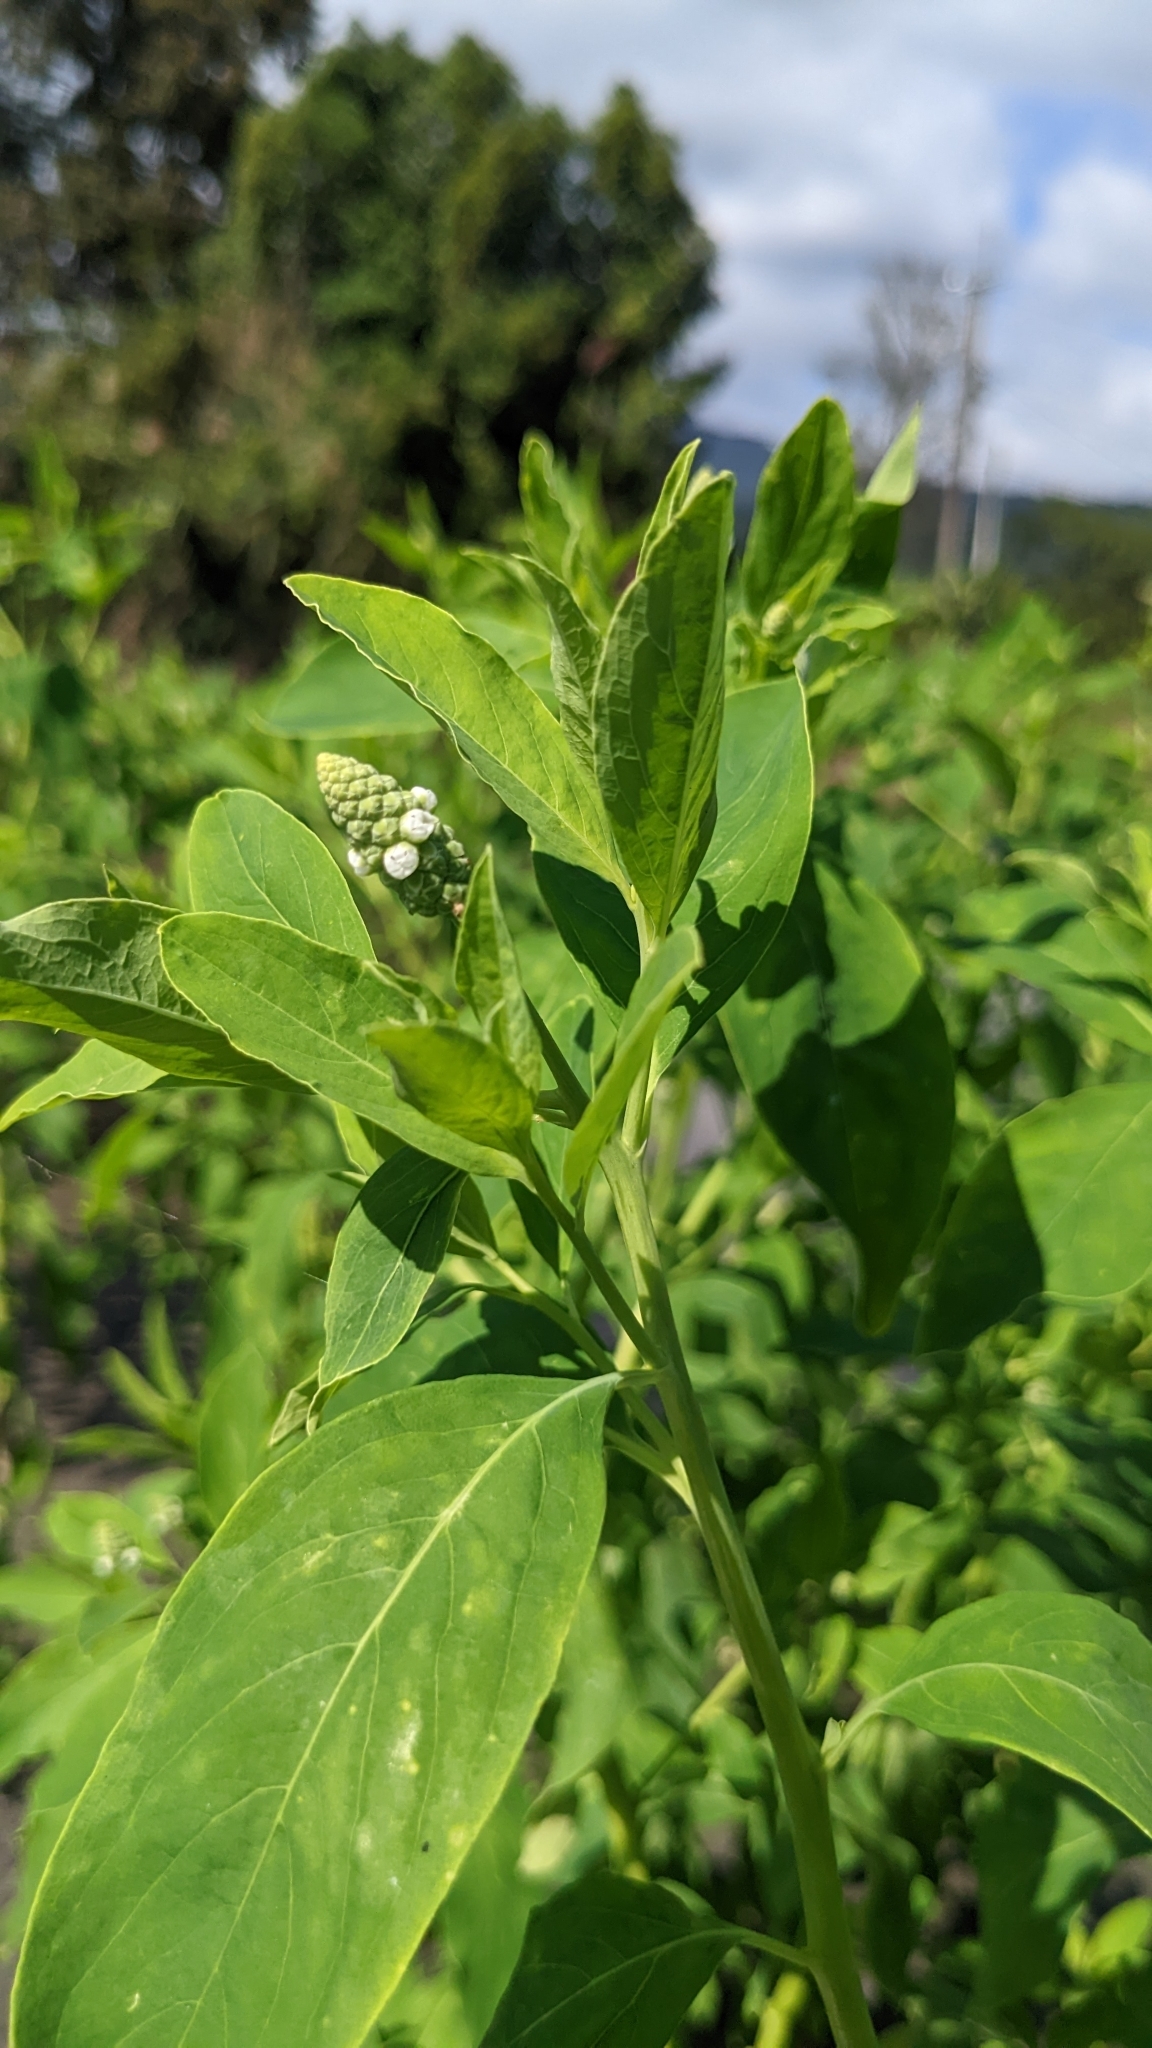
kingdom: Plantae
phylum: Tracheophyta
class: Magnoliopsida
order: Solanales
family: Sphenocleaceae
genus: Sphenoclea
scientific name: Sphenoclea zeylanica
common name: Chickenspike
